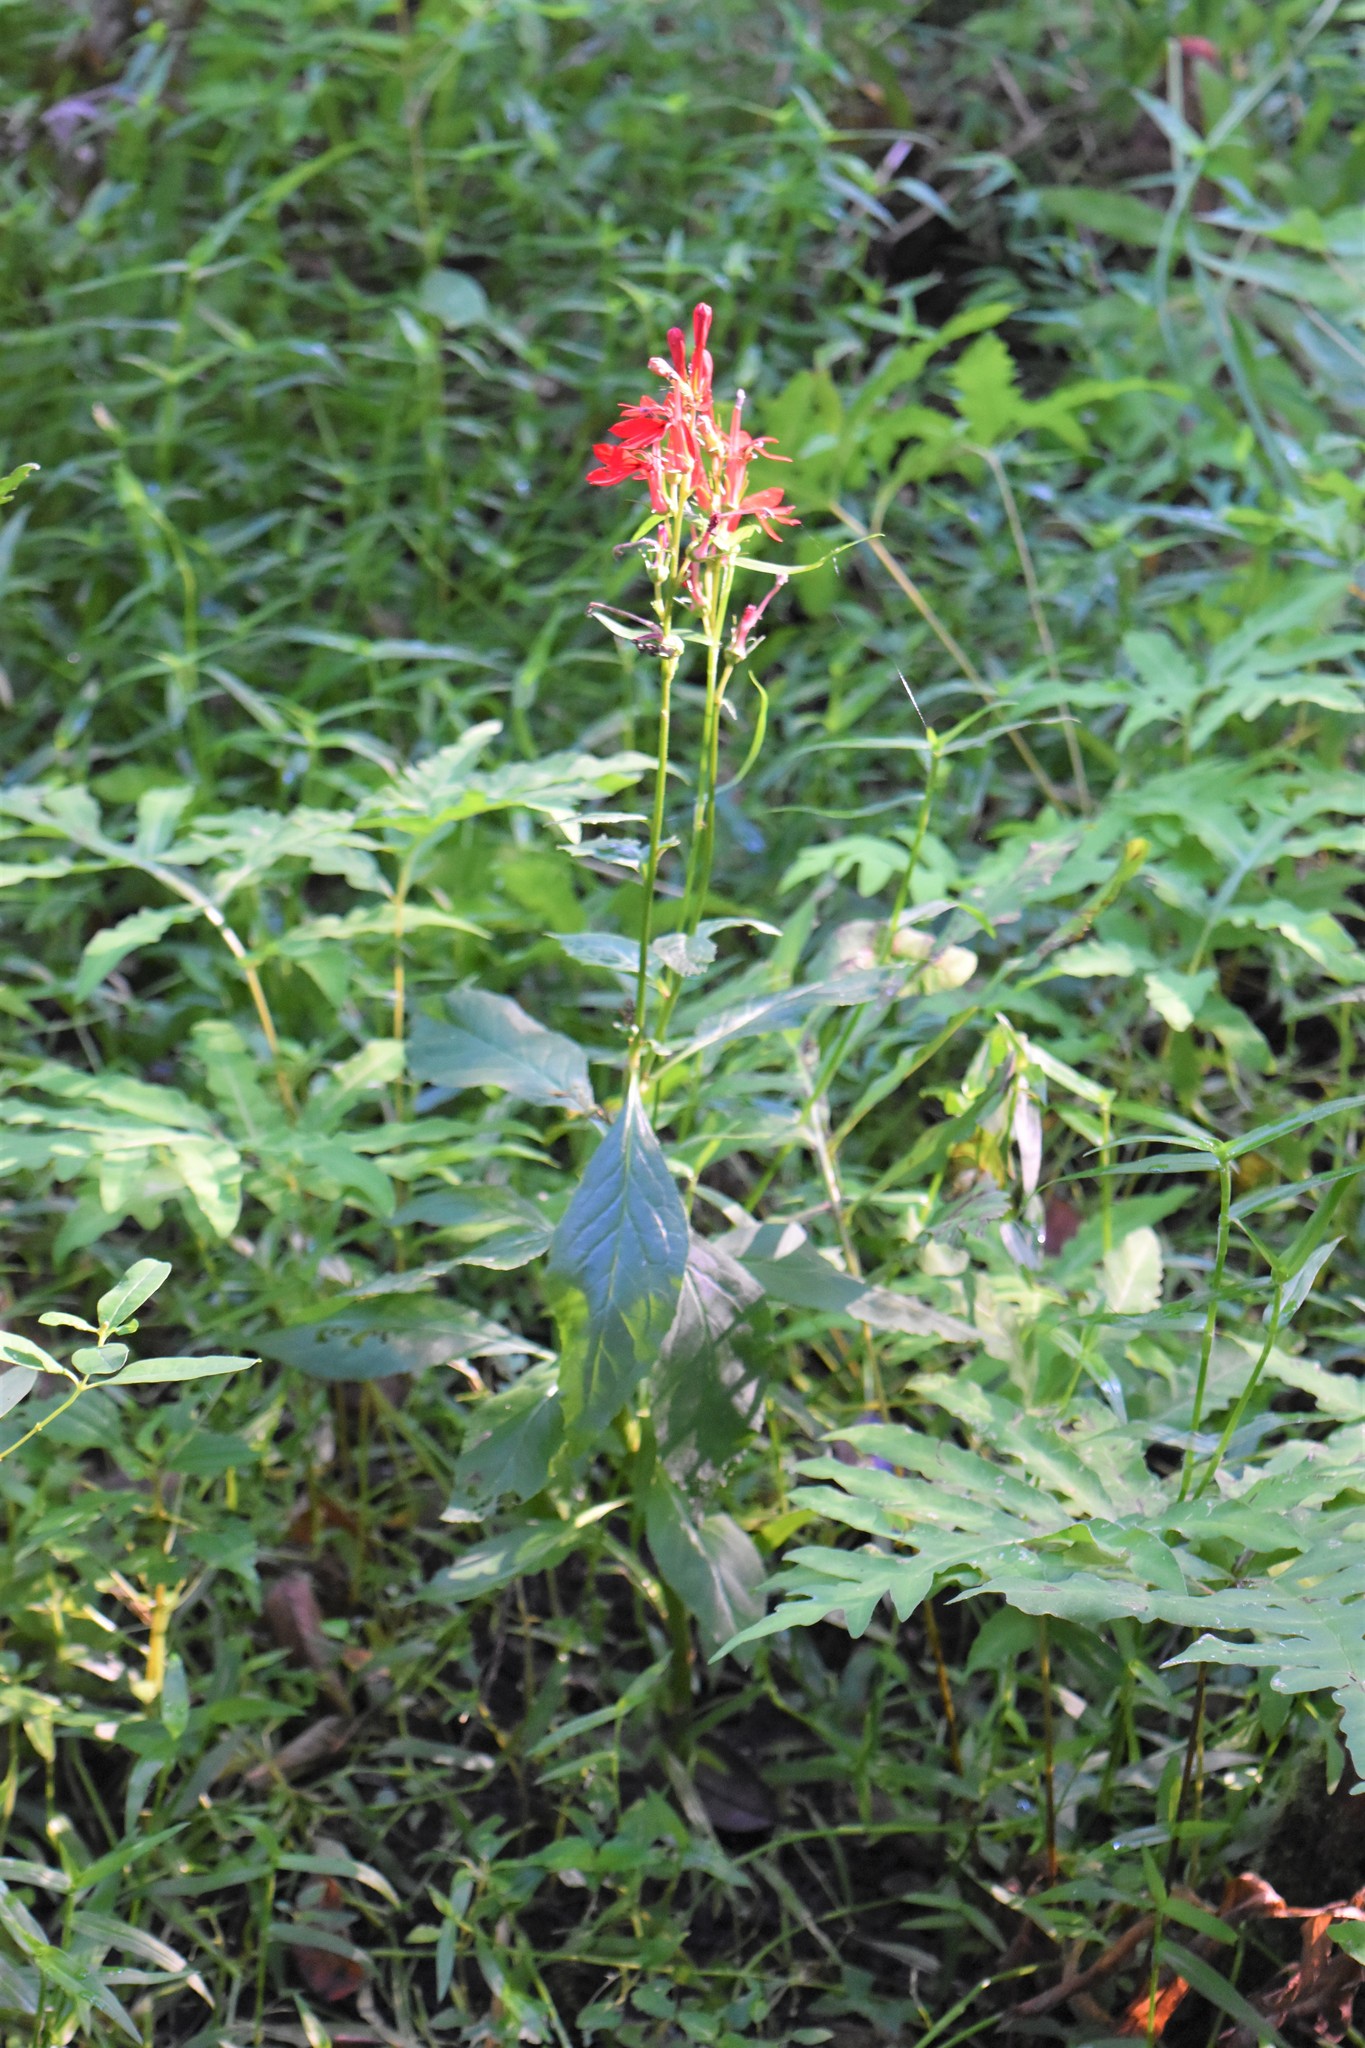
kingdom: Plantae
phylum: Tracheophyta
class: Magnoliopsida
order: Asterales
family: Campanulaceae
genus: Lobelia
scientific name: Lobelia cardinalis
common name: Cardinal flower
